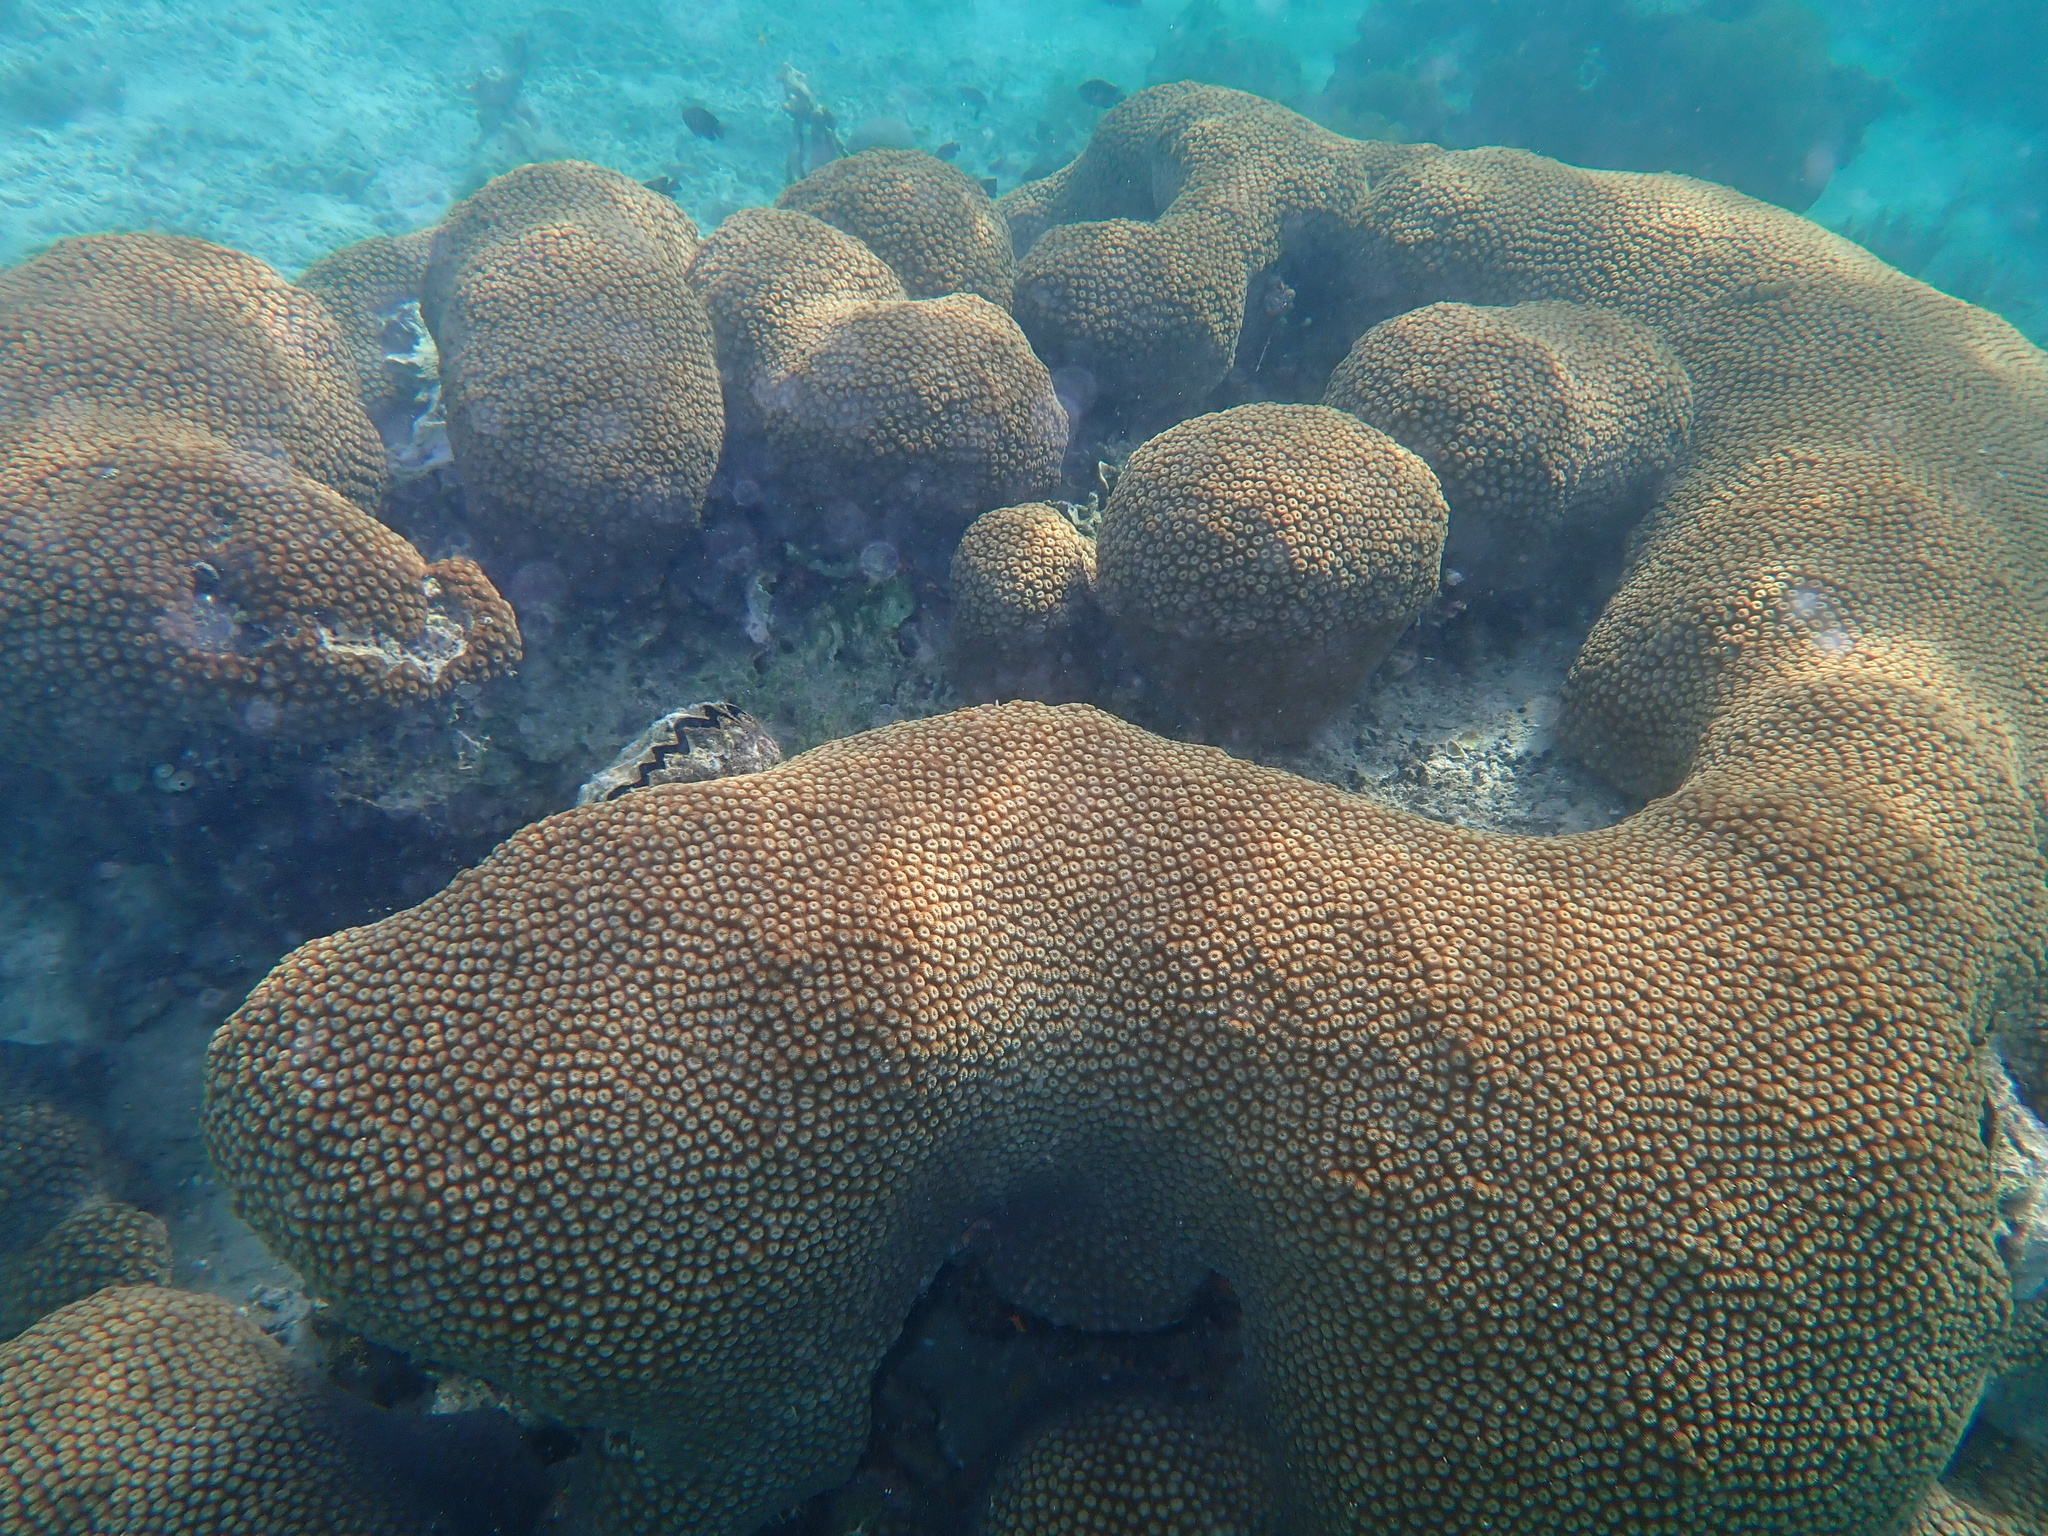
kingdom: Animalia
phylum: Cnidaria
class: Anthozoa
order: Scleractinia
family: Diploastraeidae
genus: Diploastrea
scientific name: Diploastrea heliopora
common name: Double-star coral
